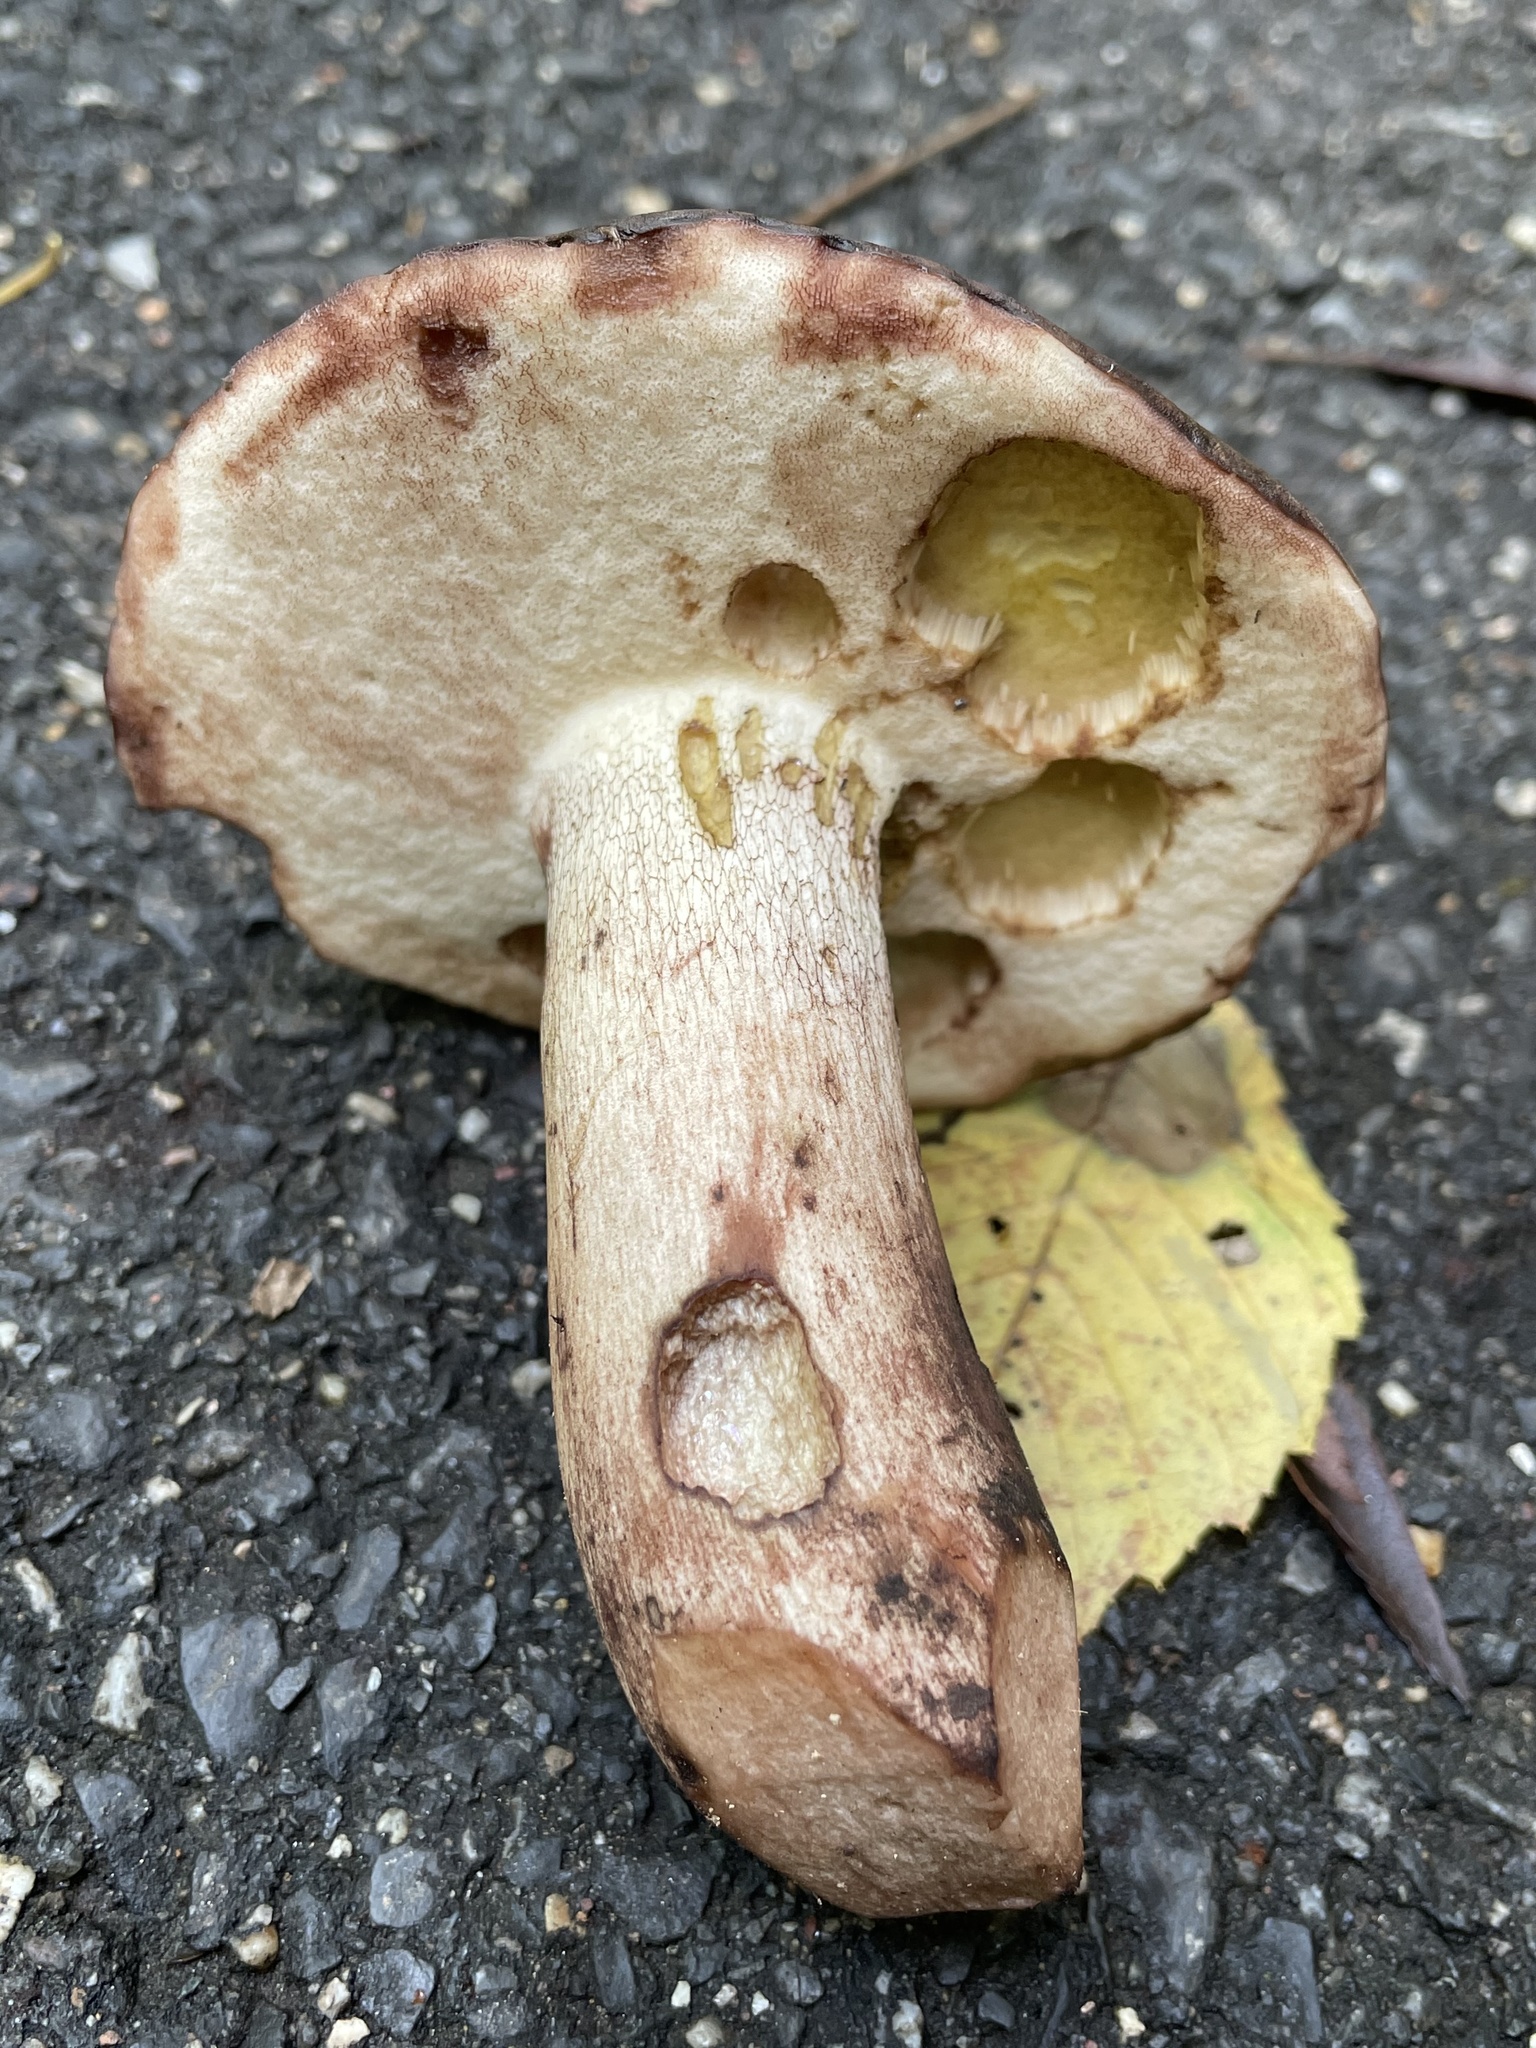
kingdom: Fungi
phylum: Basidiomycota
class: Agaricomycetes
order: Boletales
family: Boletaceae
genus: Tylopilus
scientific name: Tylopilus variobrunneus
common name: Brown-net bolete
